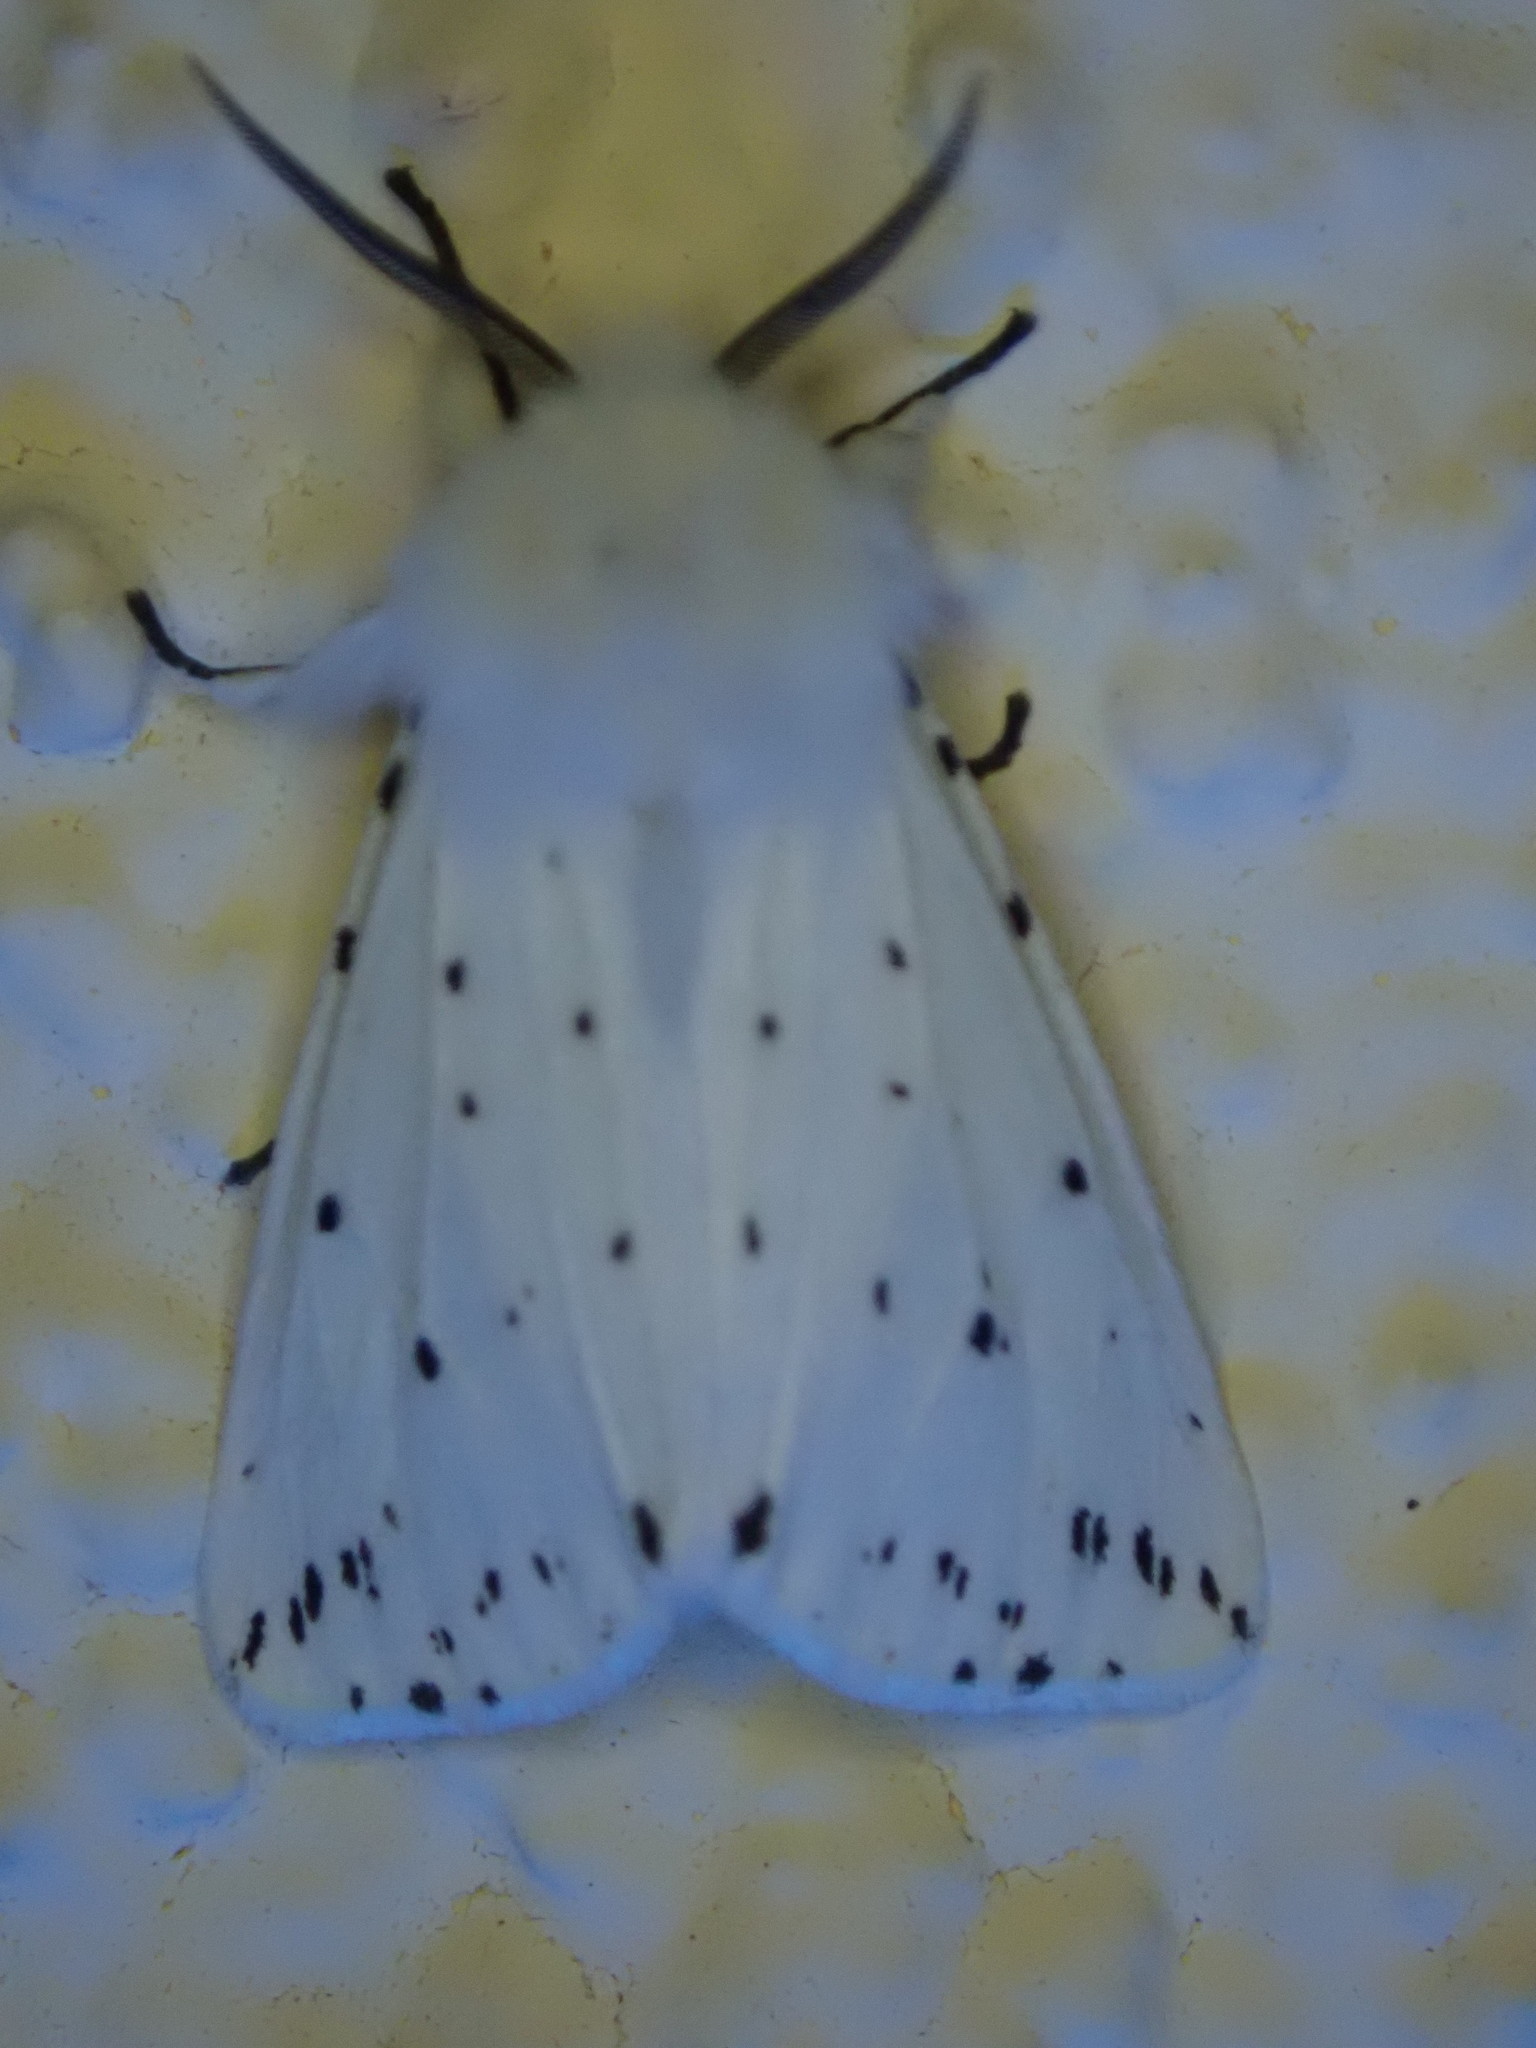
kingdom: Animalia
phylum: Arthropoda
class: Insecta
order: Lepidoptera
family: Erebidae
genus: Spilosoma
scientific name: Spilosoma lubricipeda
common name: White ermine
